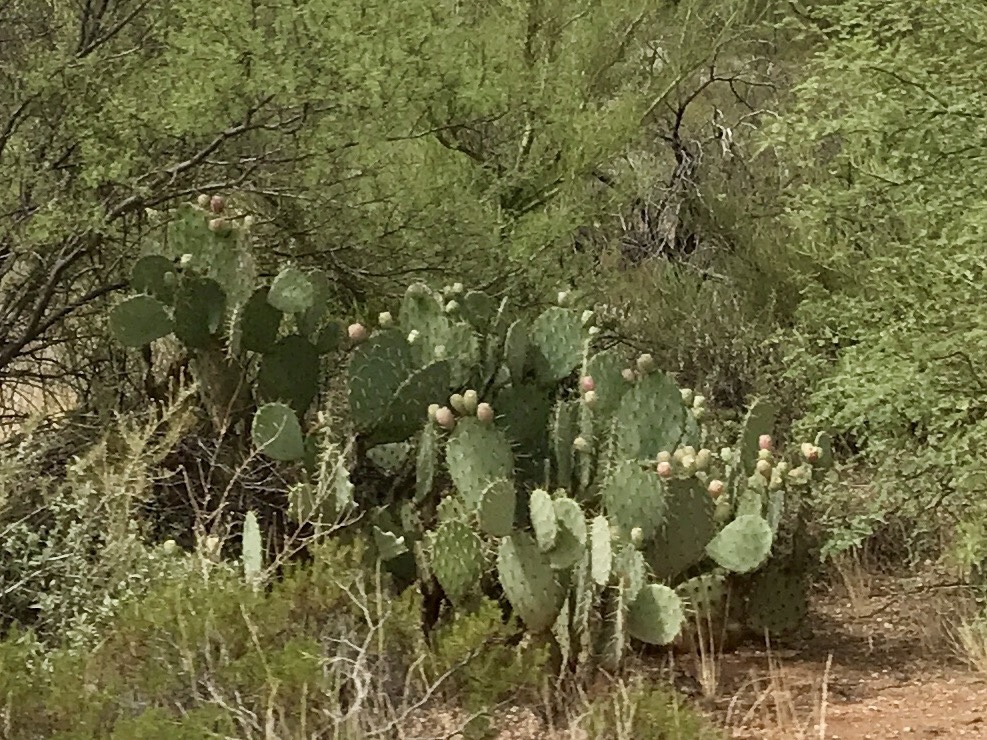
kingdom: Plantae
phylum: Tracheophyta
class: Magnoliopsida
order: Caryophyllales
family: Cactaceae
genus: Opuntia
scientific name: Opuntia engelmannii
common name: Cactus-apple
